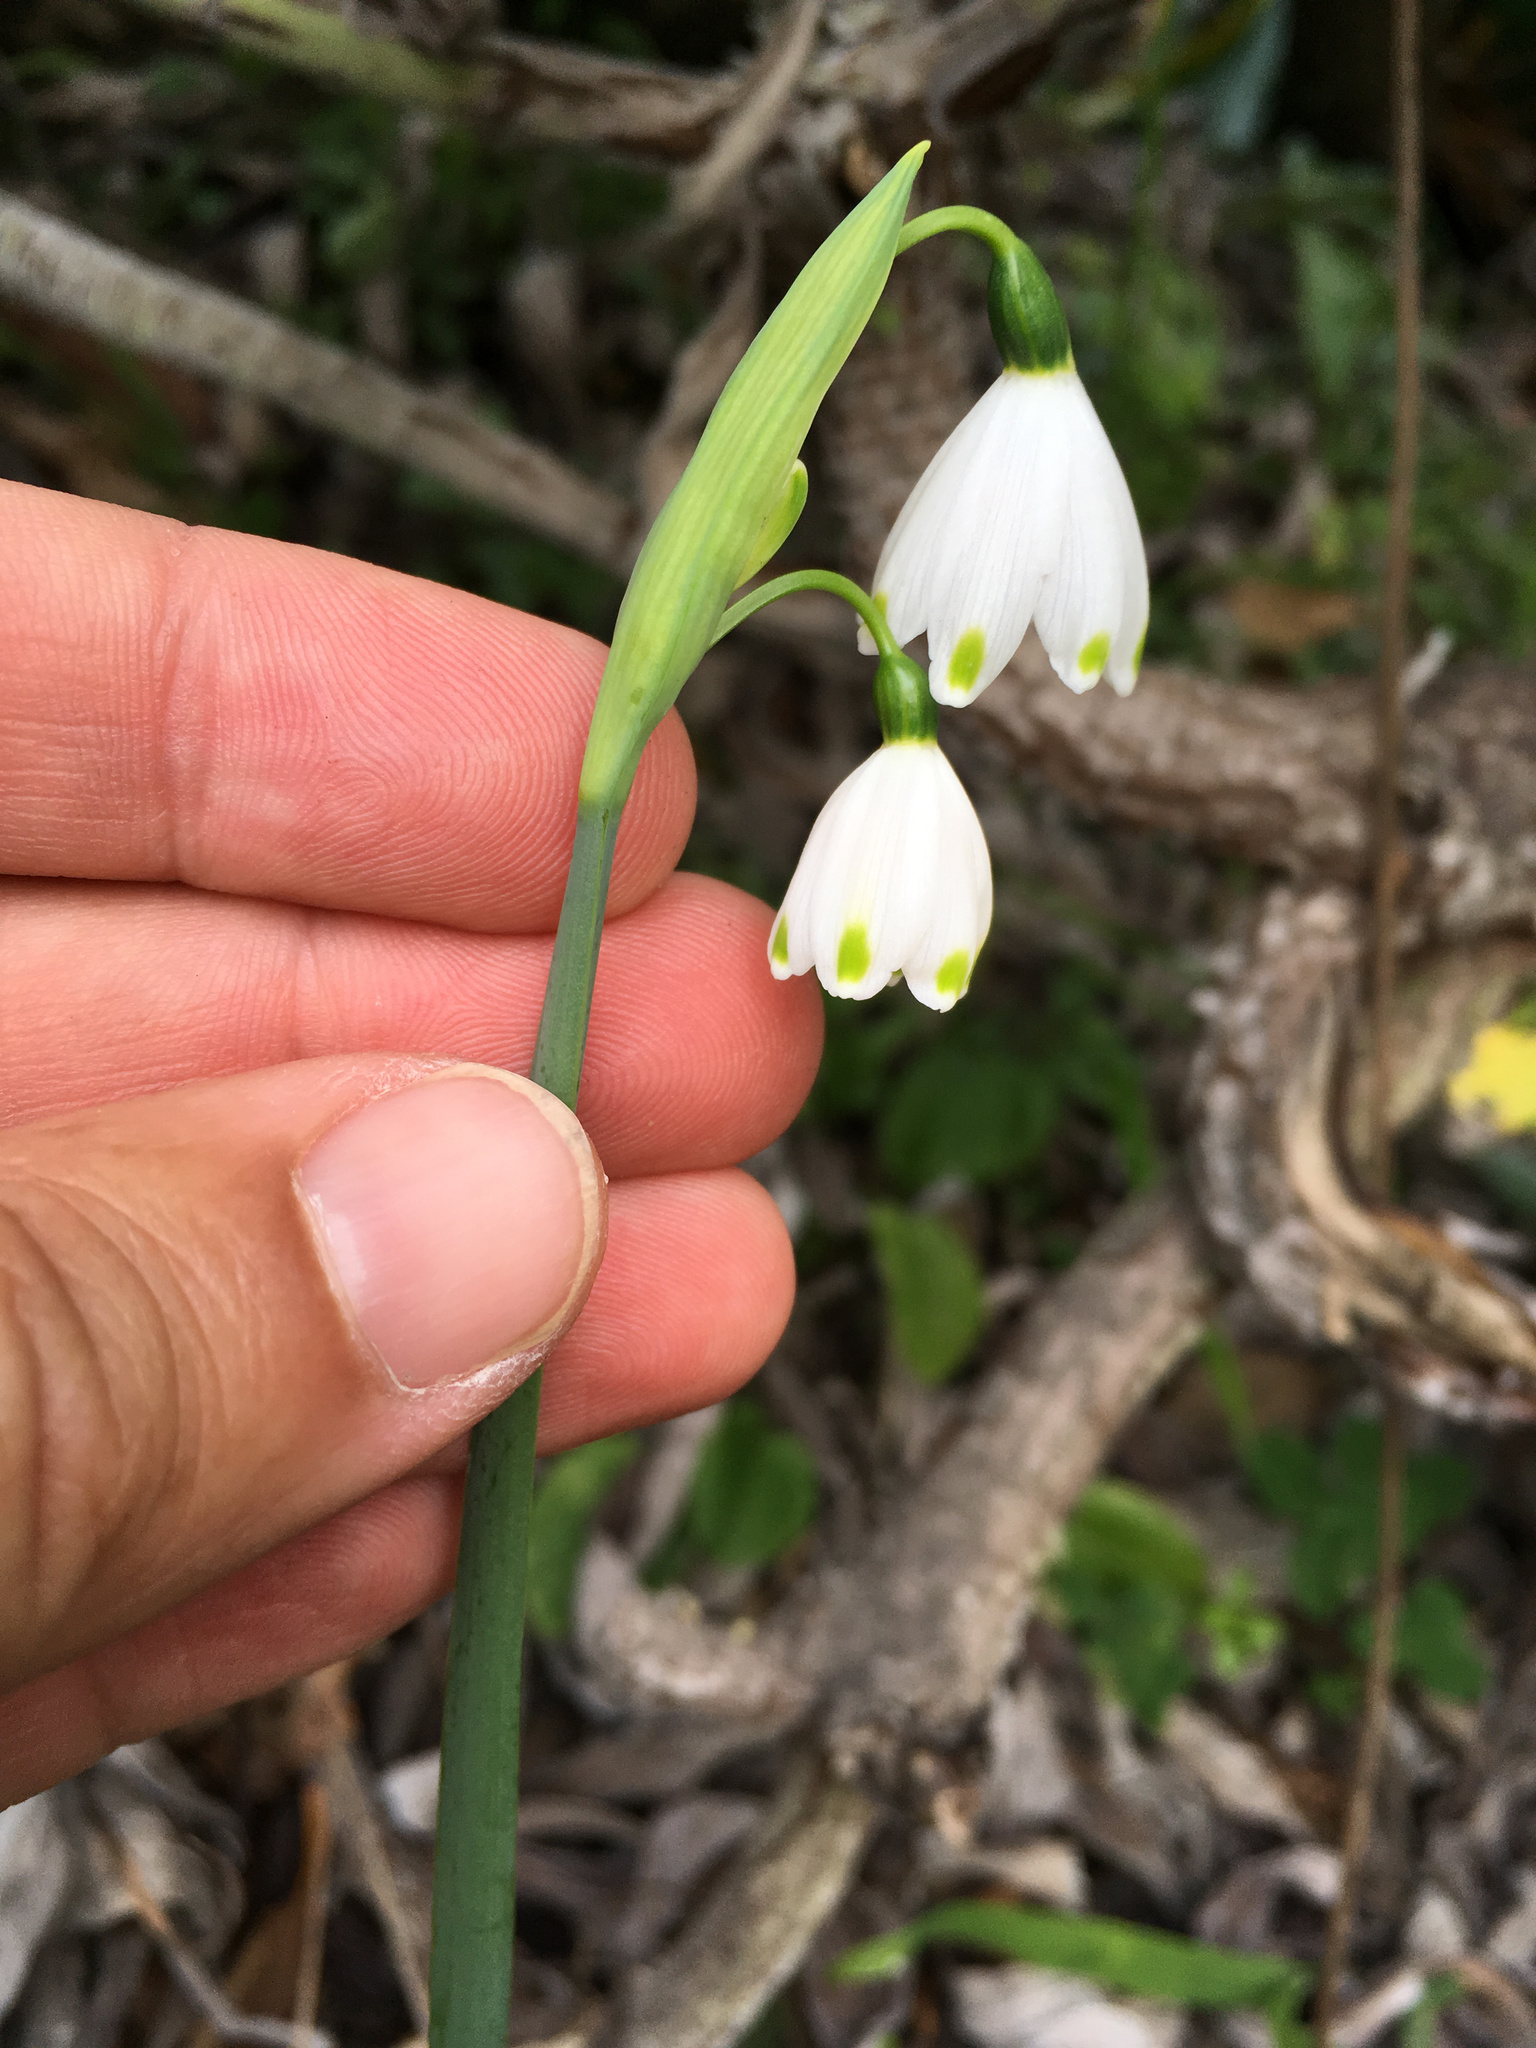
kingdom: Plantae
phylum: Tracheophyta
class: Liliopsida
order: Asparagales
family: Amaryllidaceae
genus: Leucojum
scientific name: Leucojum aestivum
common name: Summer snowflake
